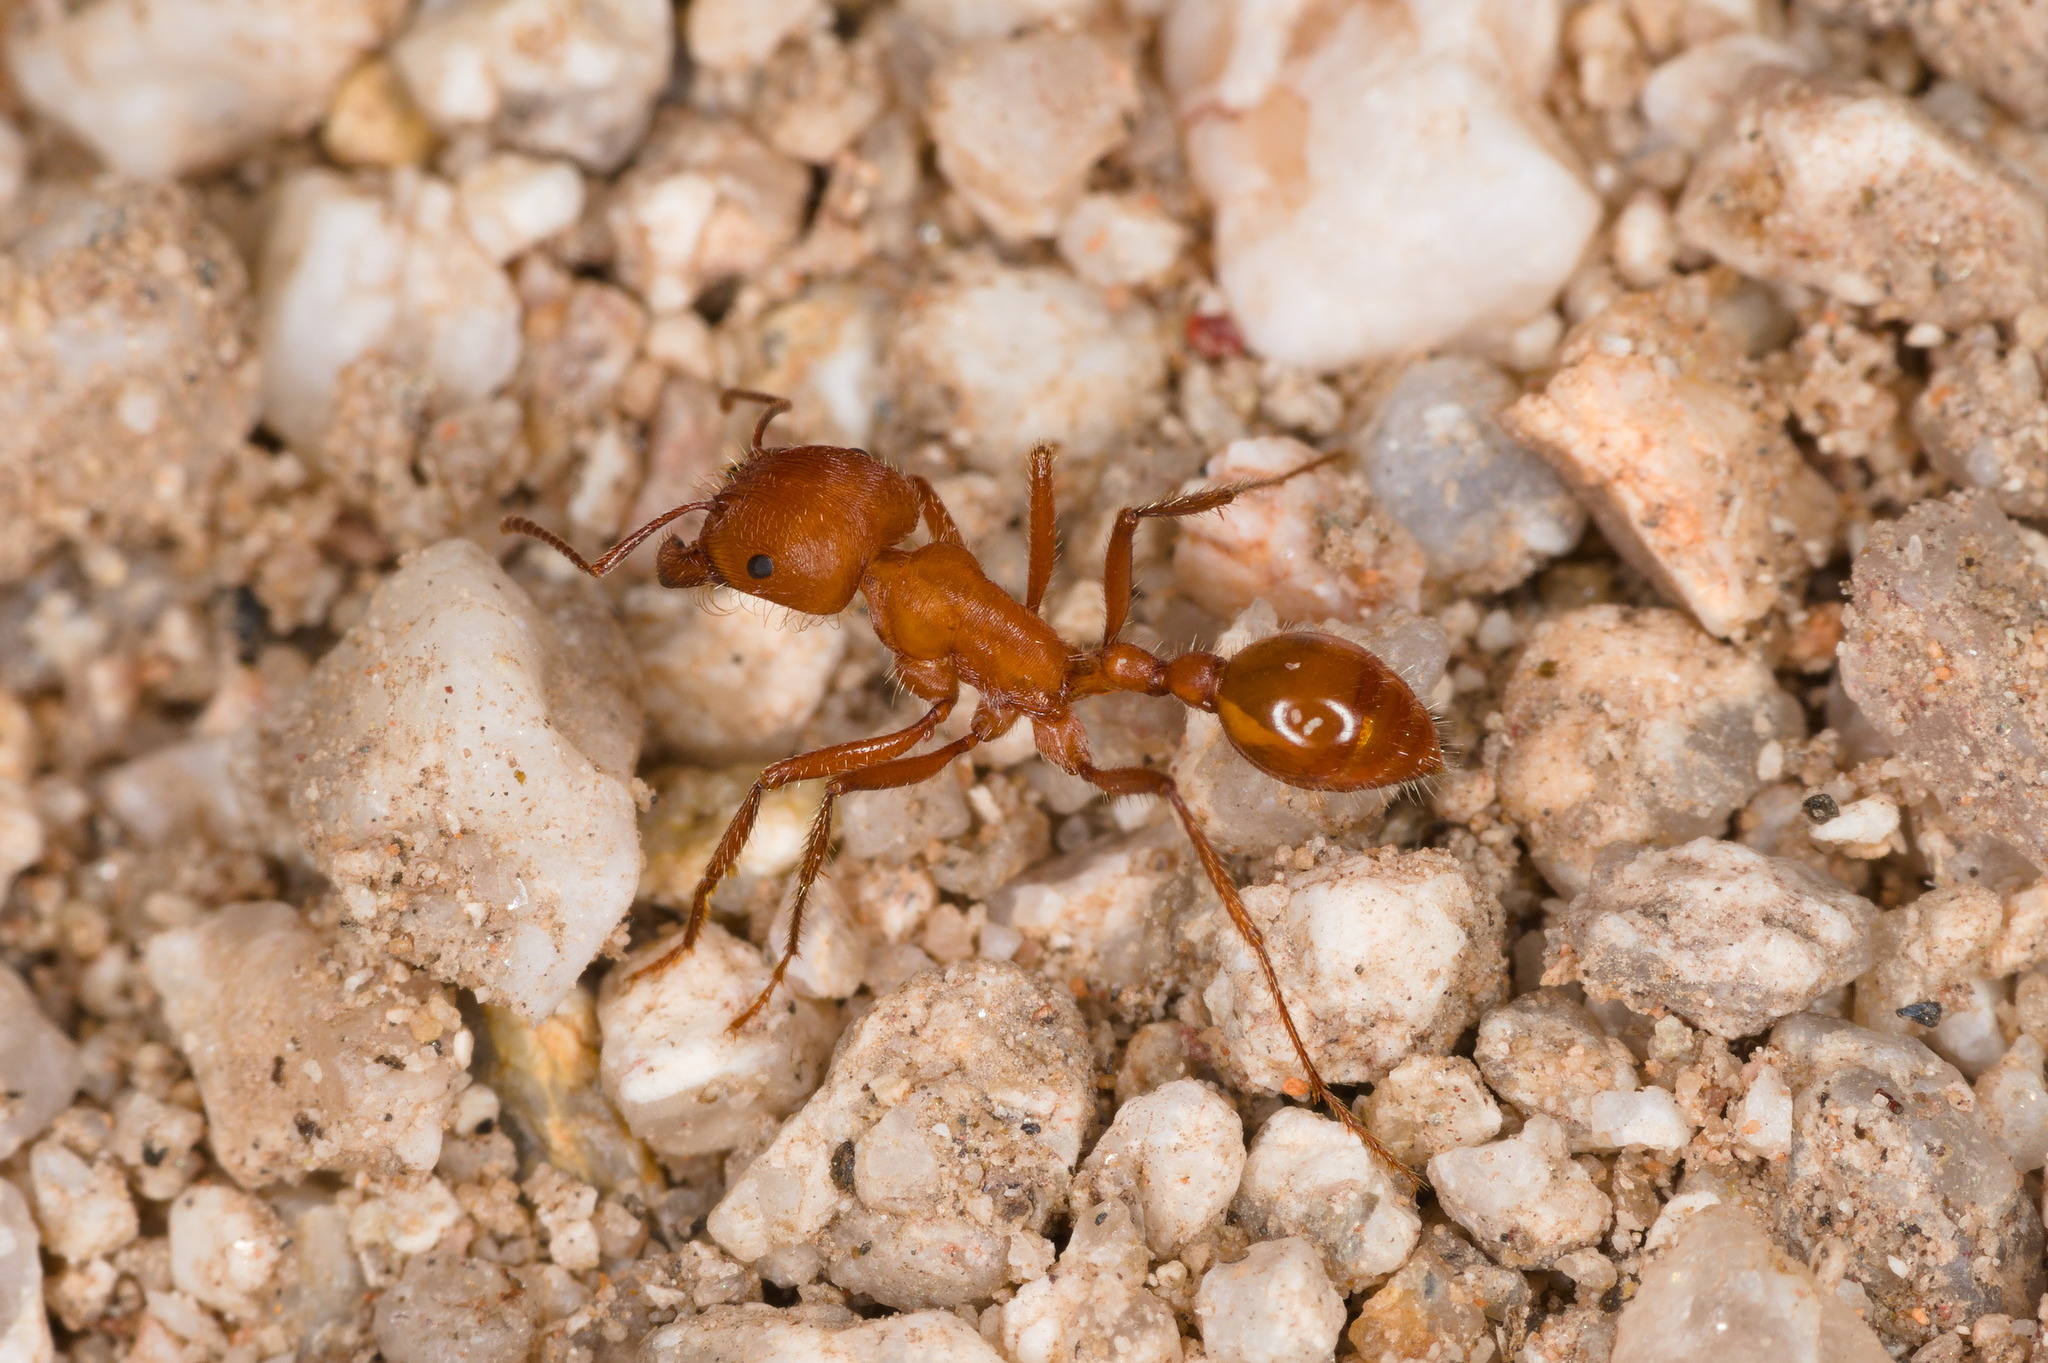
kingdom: Animalia
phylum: Arthropoda
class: Insecta
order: Hymenoptera
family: Formicidae
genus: Pogonomyrmex
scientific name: Pogonomyrmex maricopa
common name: Maricopa harvester ant
